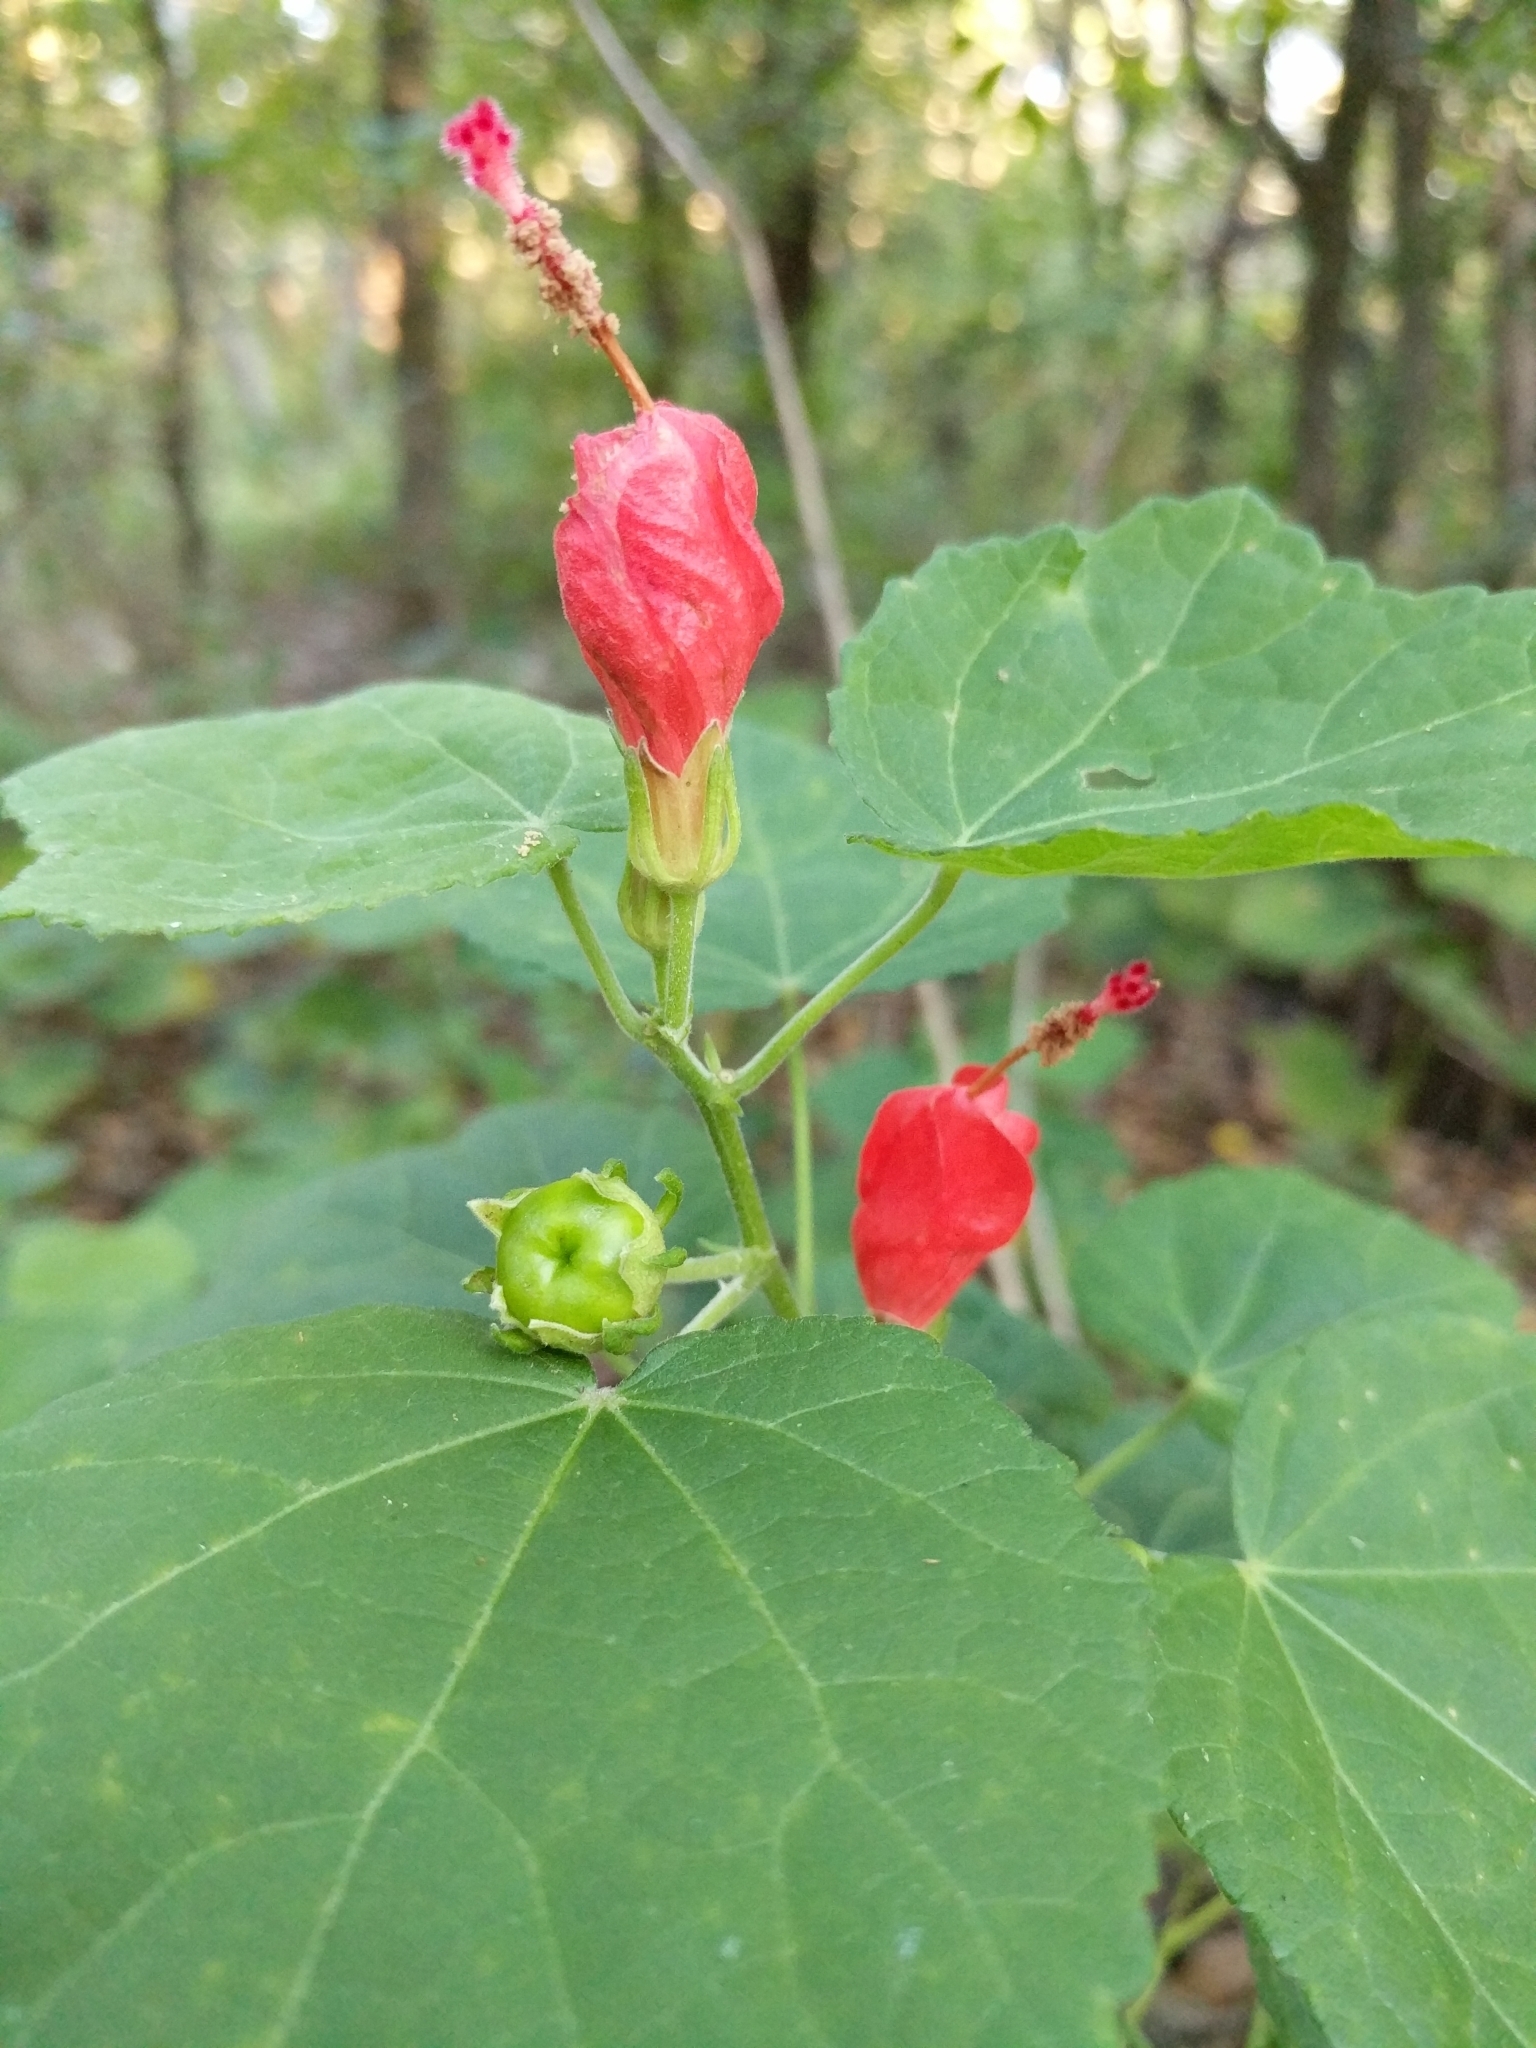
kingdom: Plantae
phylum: Tracheophyta
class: Magnoliopsida
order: Malvales
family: Malvaceae
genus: Malvaviscus
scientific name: Malvaviscus arboreus
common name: Wax mallow
